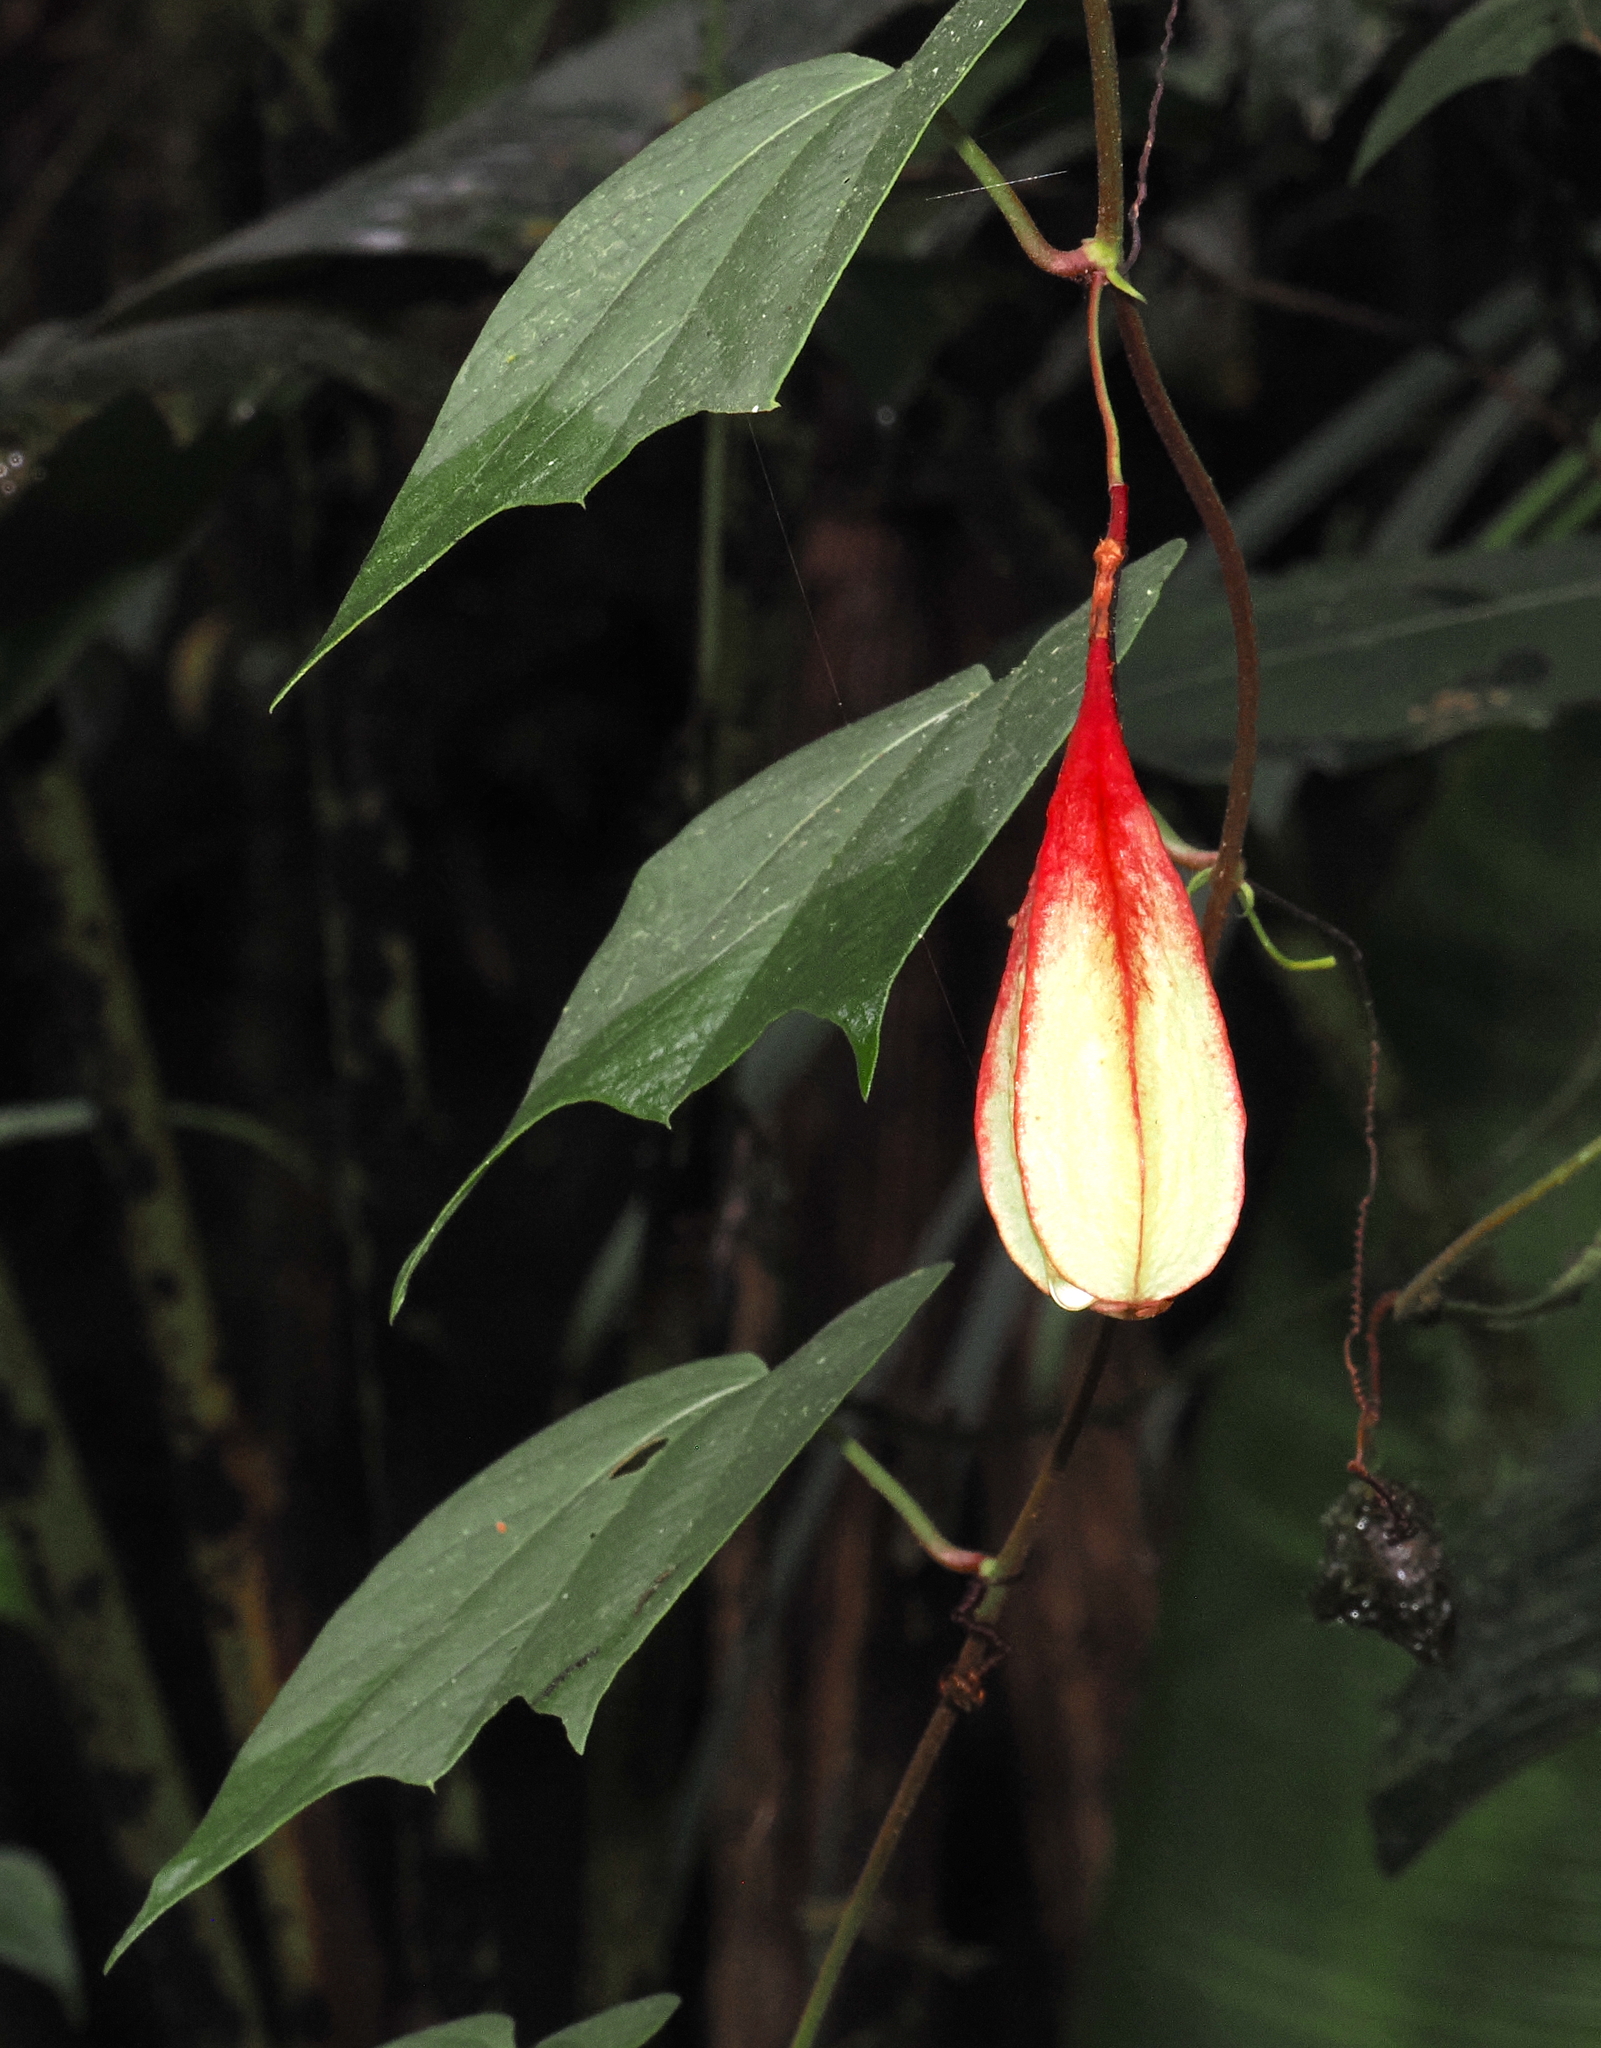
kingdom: Plantae
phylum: Tracheophyta
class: Magnoliopsida
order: Malpighiales
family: Passifloraceae
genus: Passiflora
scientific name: Passiflora capsularis
